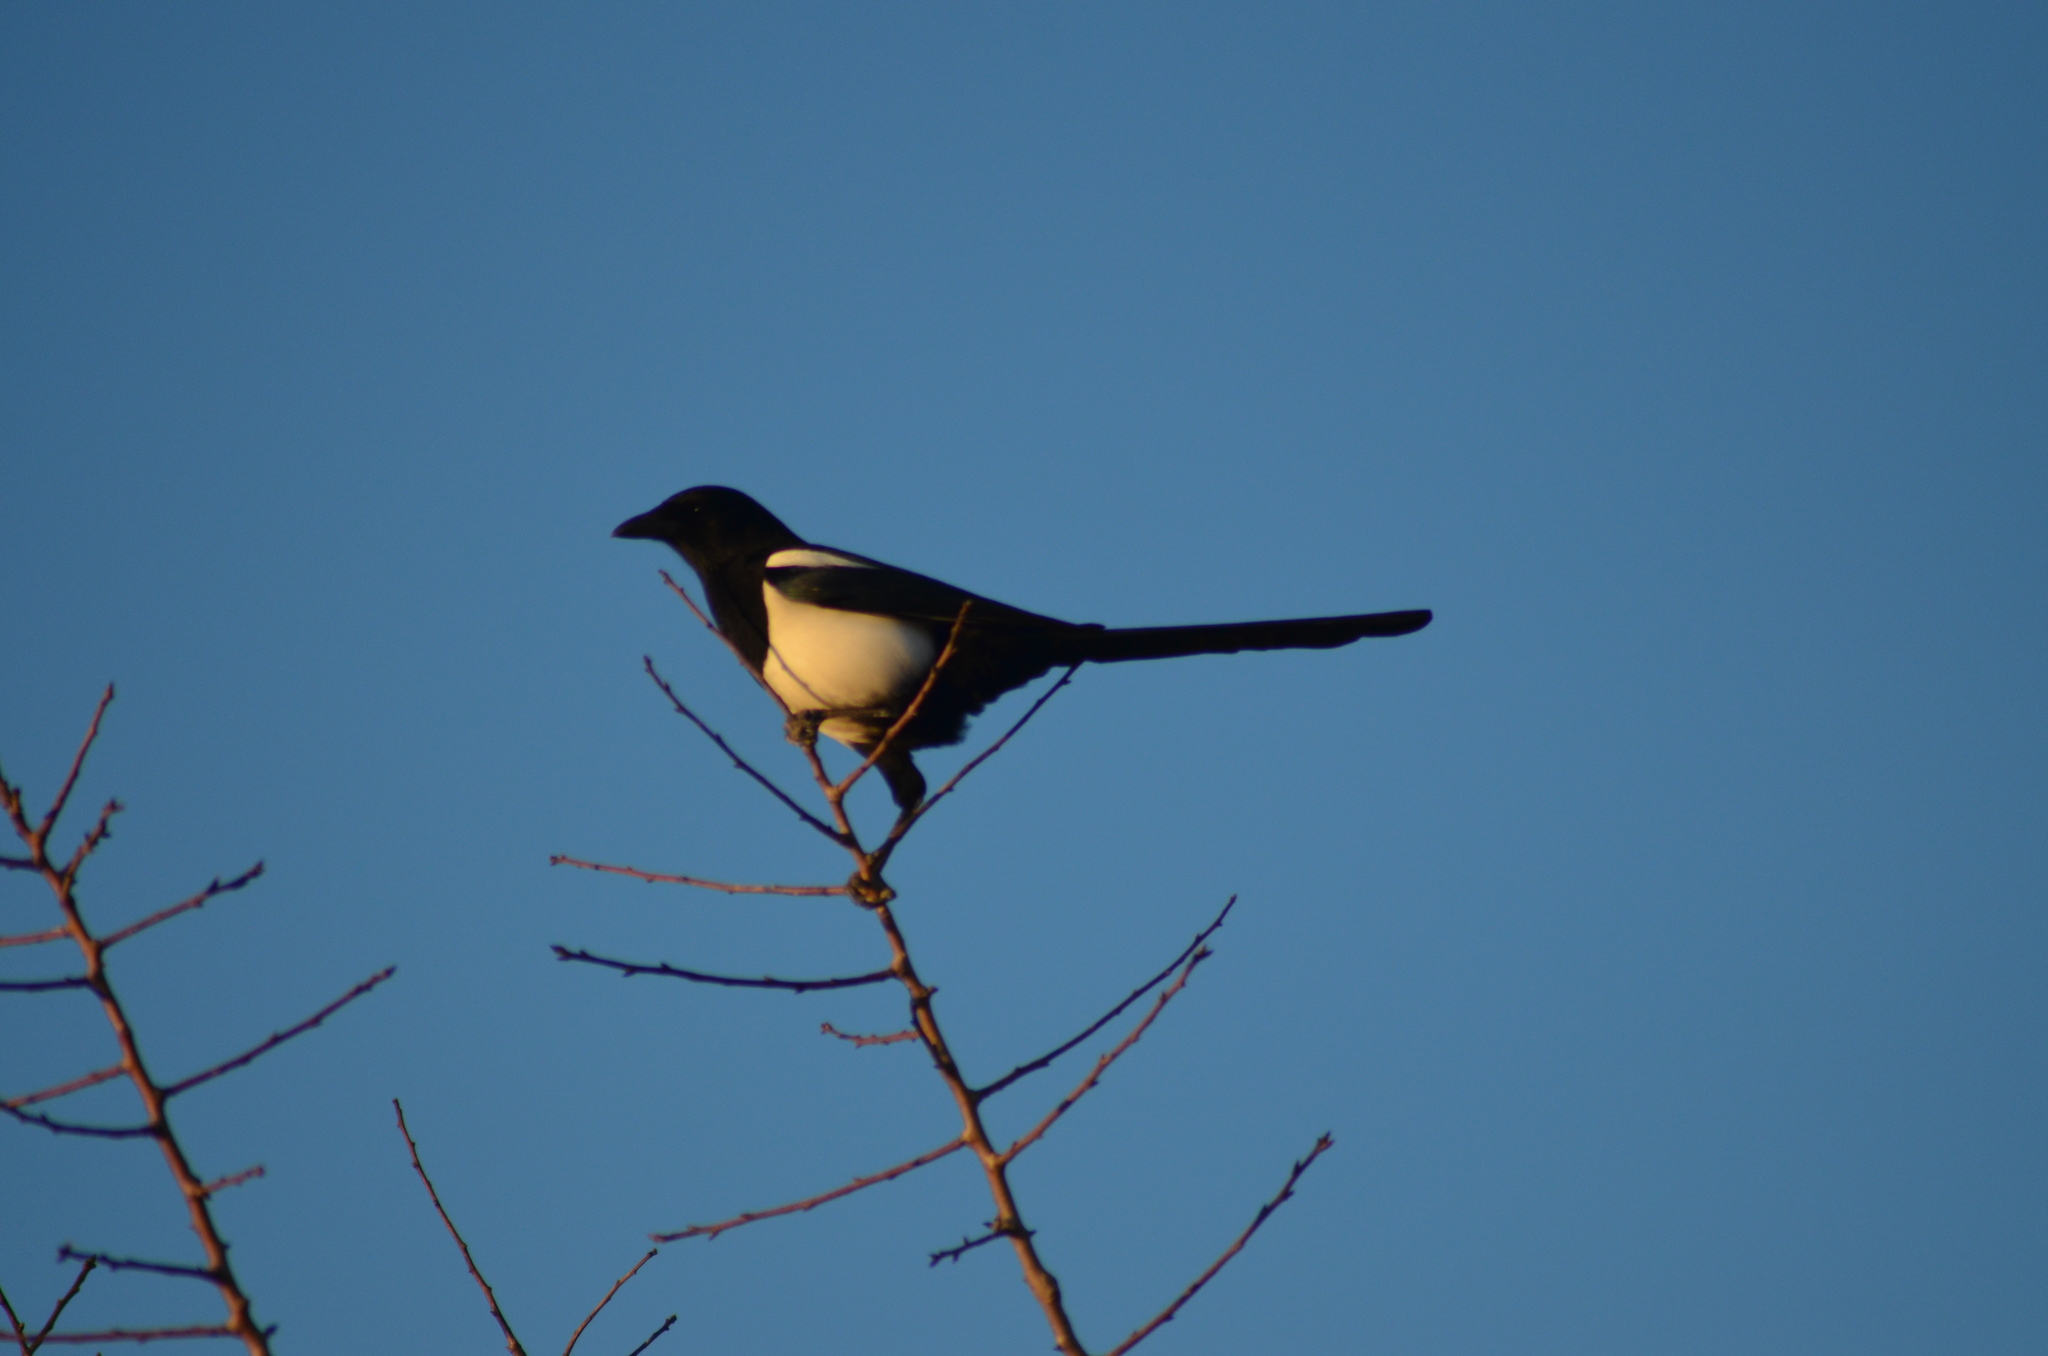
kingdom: Animalia
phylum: Chordata
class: Aves
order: Passeriformes
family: Corvidae
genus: Pica
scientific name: Pica pica
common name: Eurasian magpie
